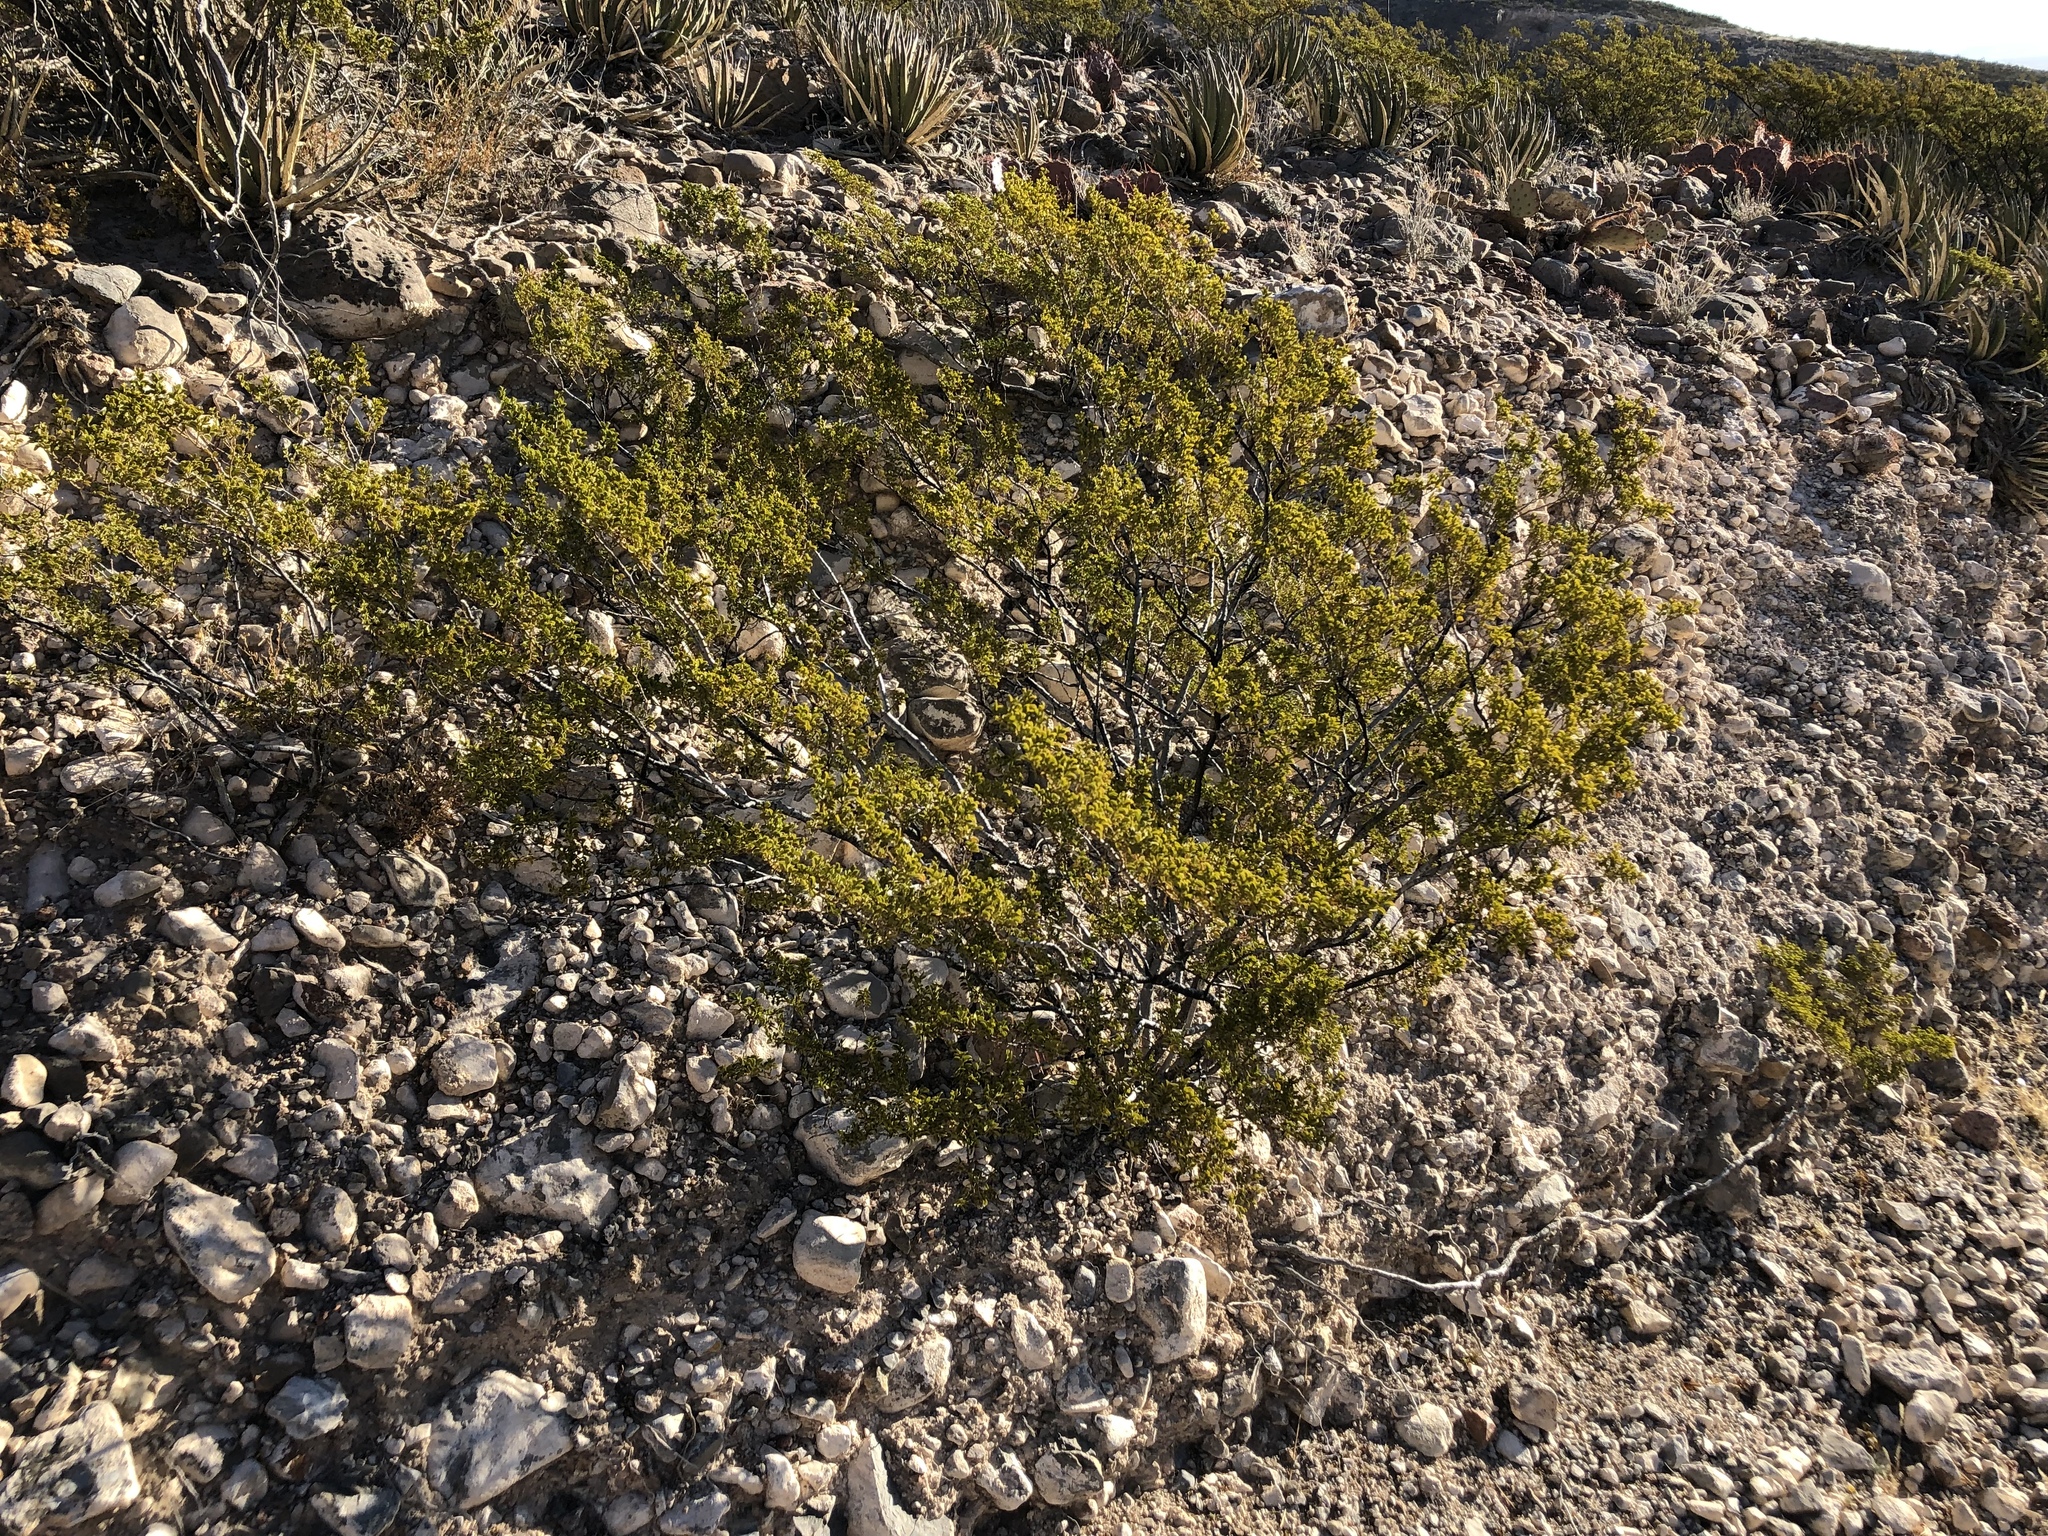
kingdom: Plantae
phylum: Tracheophyta
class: Magnoliopsida
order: Zygophyllales
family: Zygophyllaceae
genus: Larrea
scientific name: Larrea tridentata
